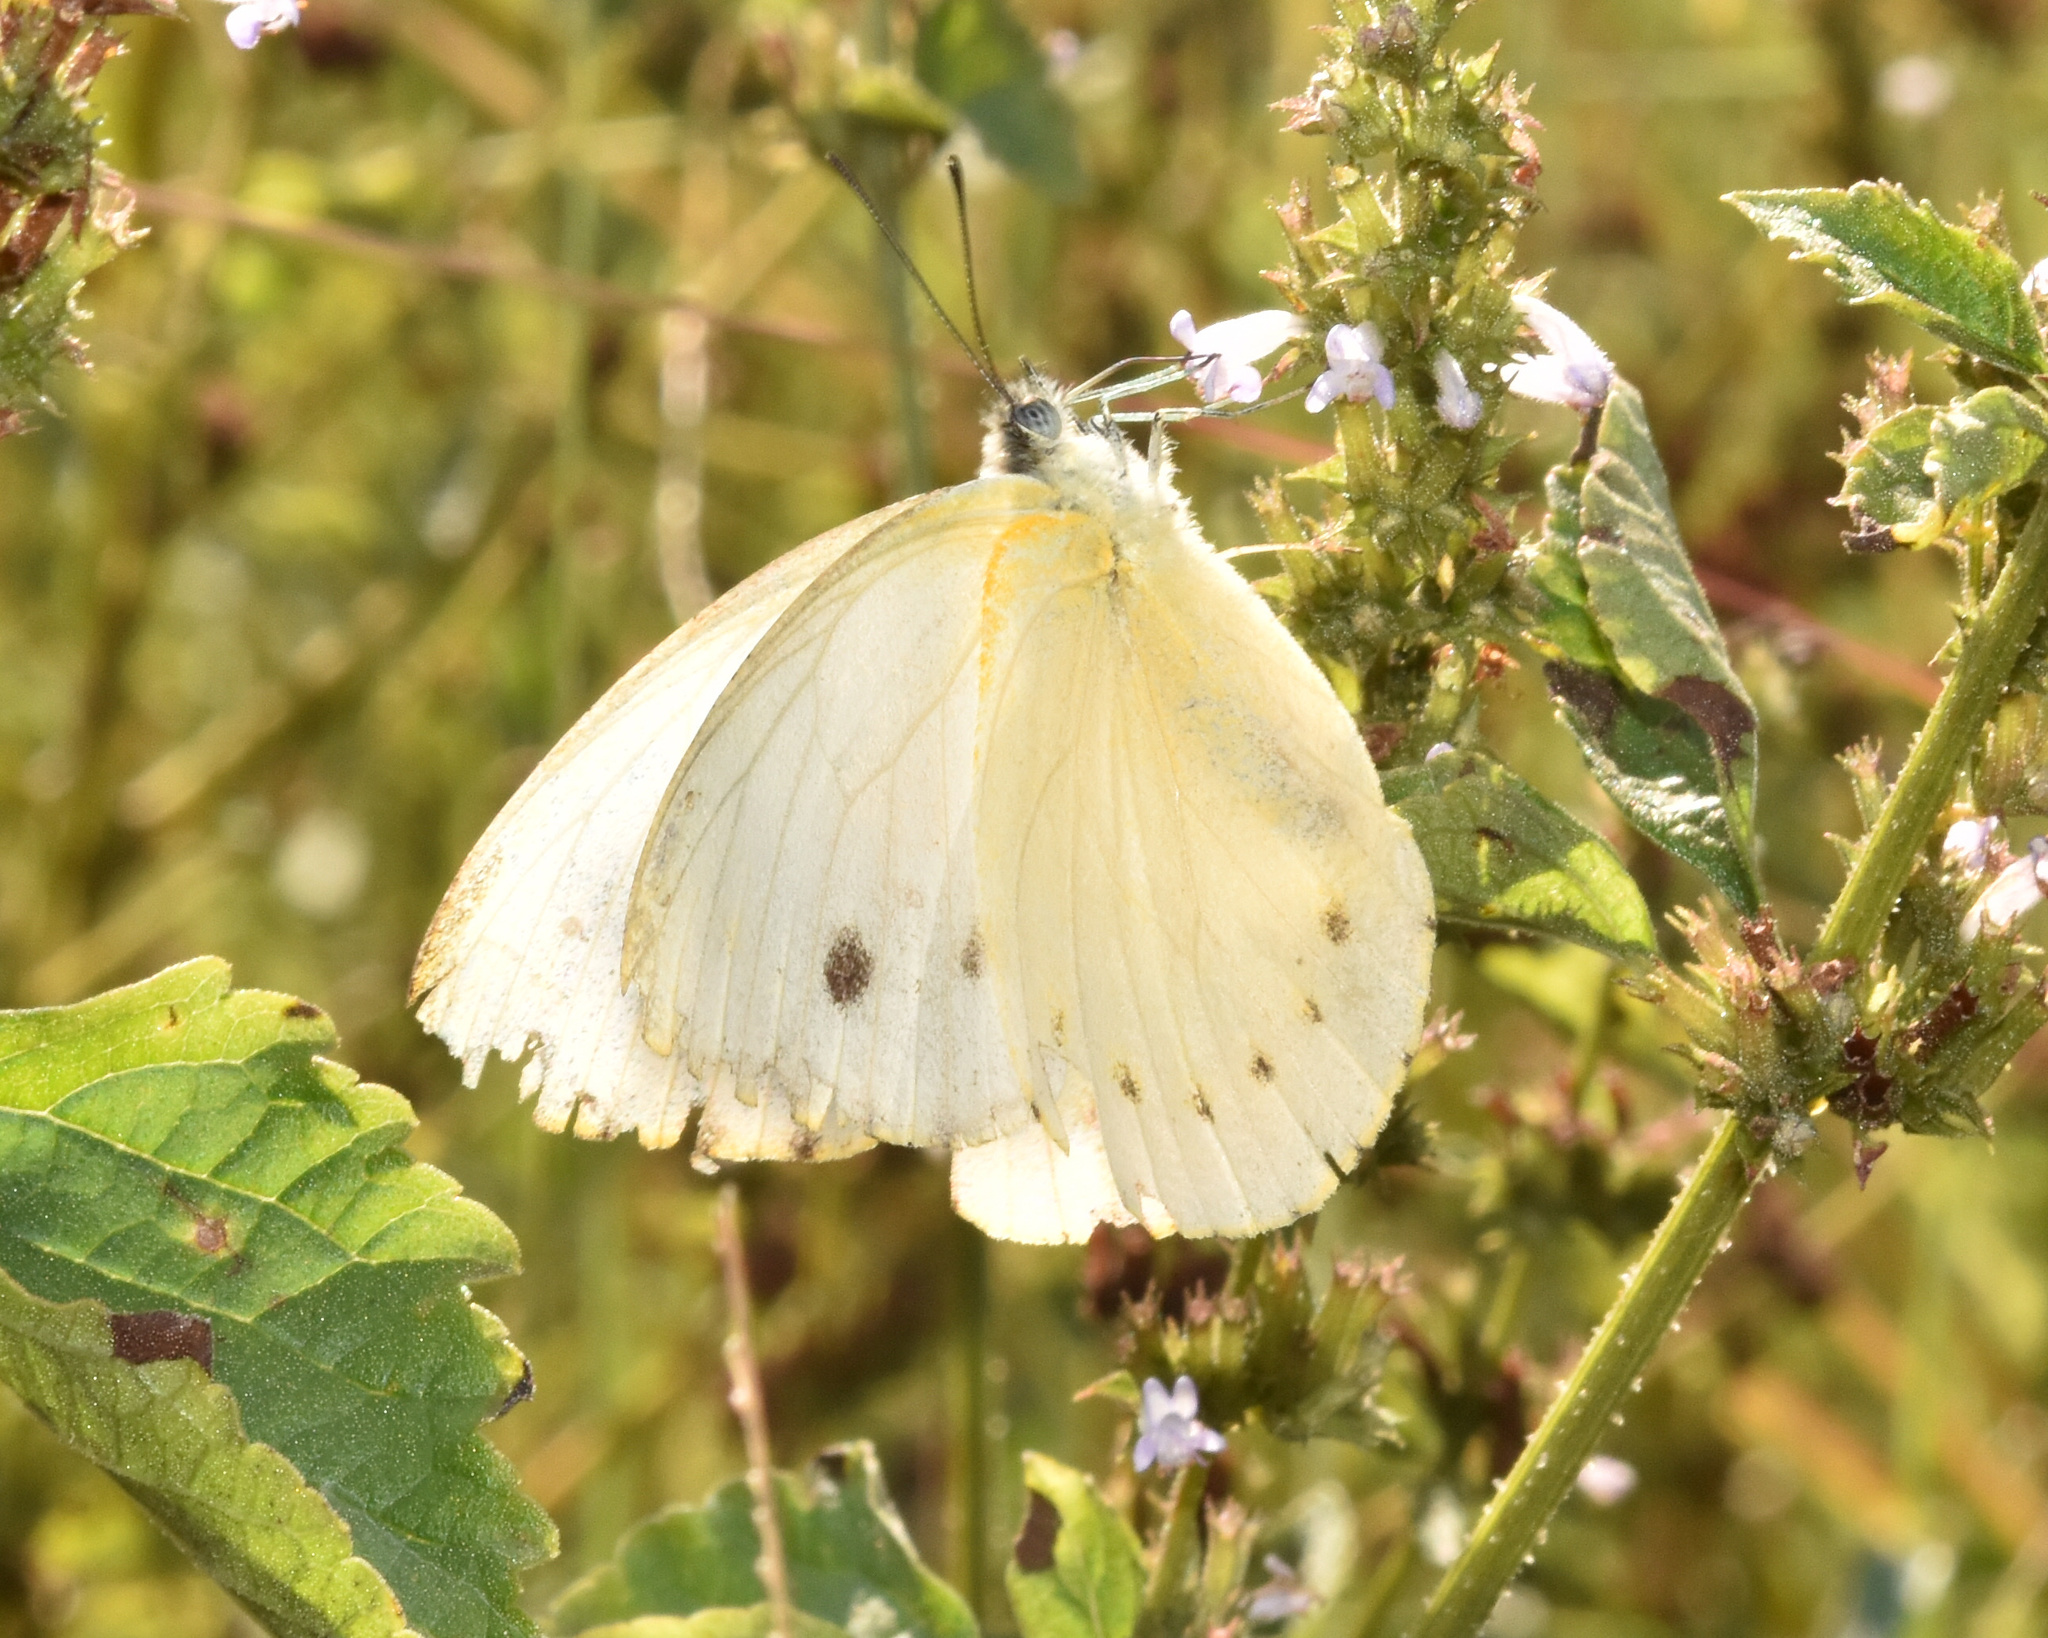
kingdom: Animalia
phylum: Arthropoda
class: Insecta
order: Lepidoptera
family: Pieridae
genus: Dixeia
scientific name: Dixeia pigea
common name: Ant-heap small white
